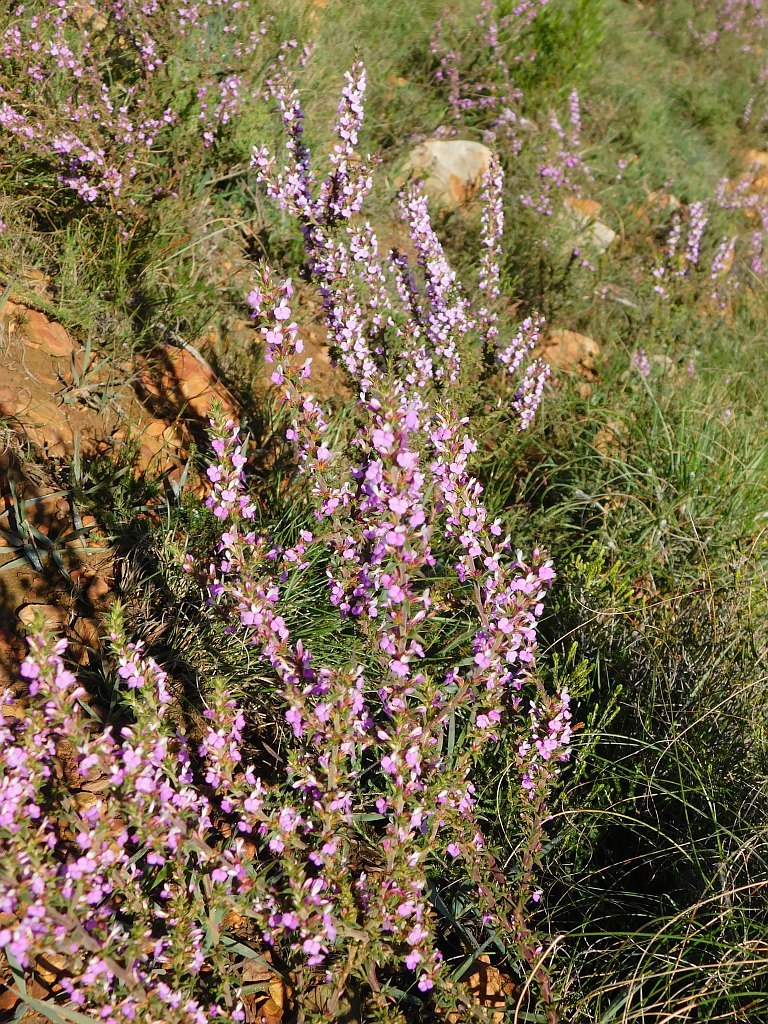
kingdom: Plantae
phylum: Tracheophyta
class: Magnoliopsida
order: Fabales
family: Polygalaceae
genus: Muraltia
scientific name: Muraltia heisteria
